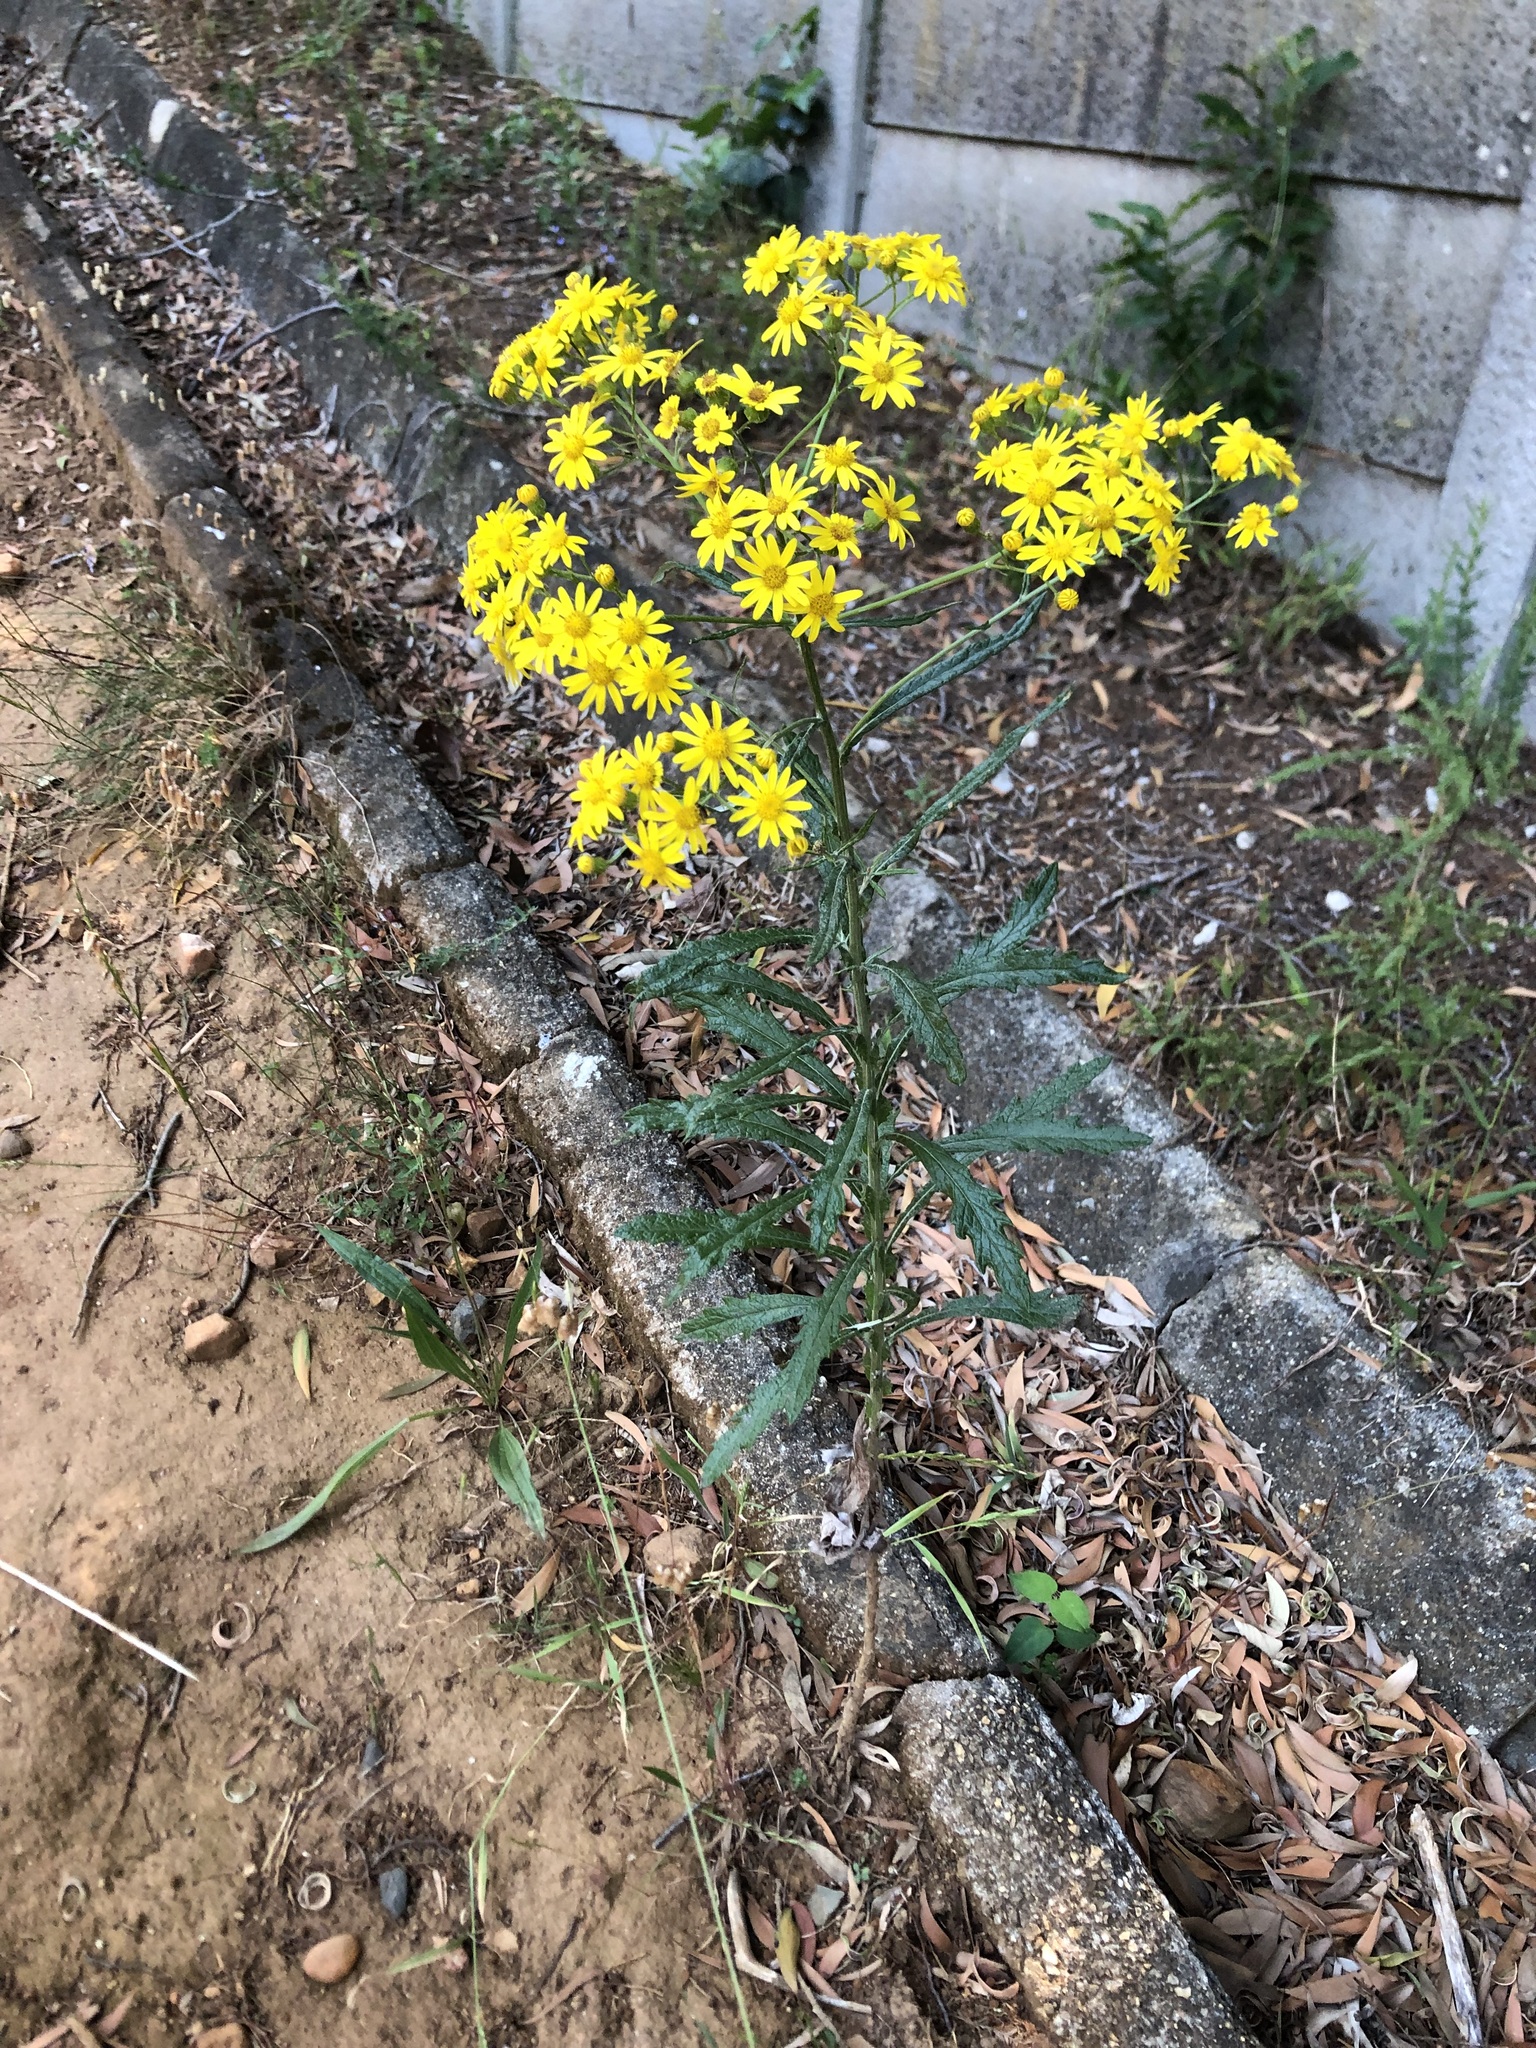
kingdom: Plantae
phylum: Tracheophyta
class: Magnoliopsida
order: Asterales
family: Asteraceae
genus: Senecio
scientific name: Senecio pterophorus
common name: Shoddy ragwort
